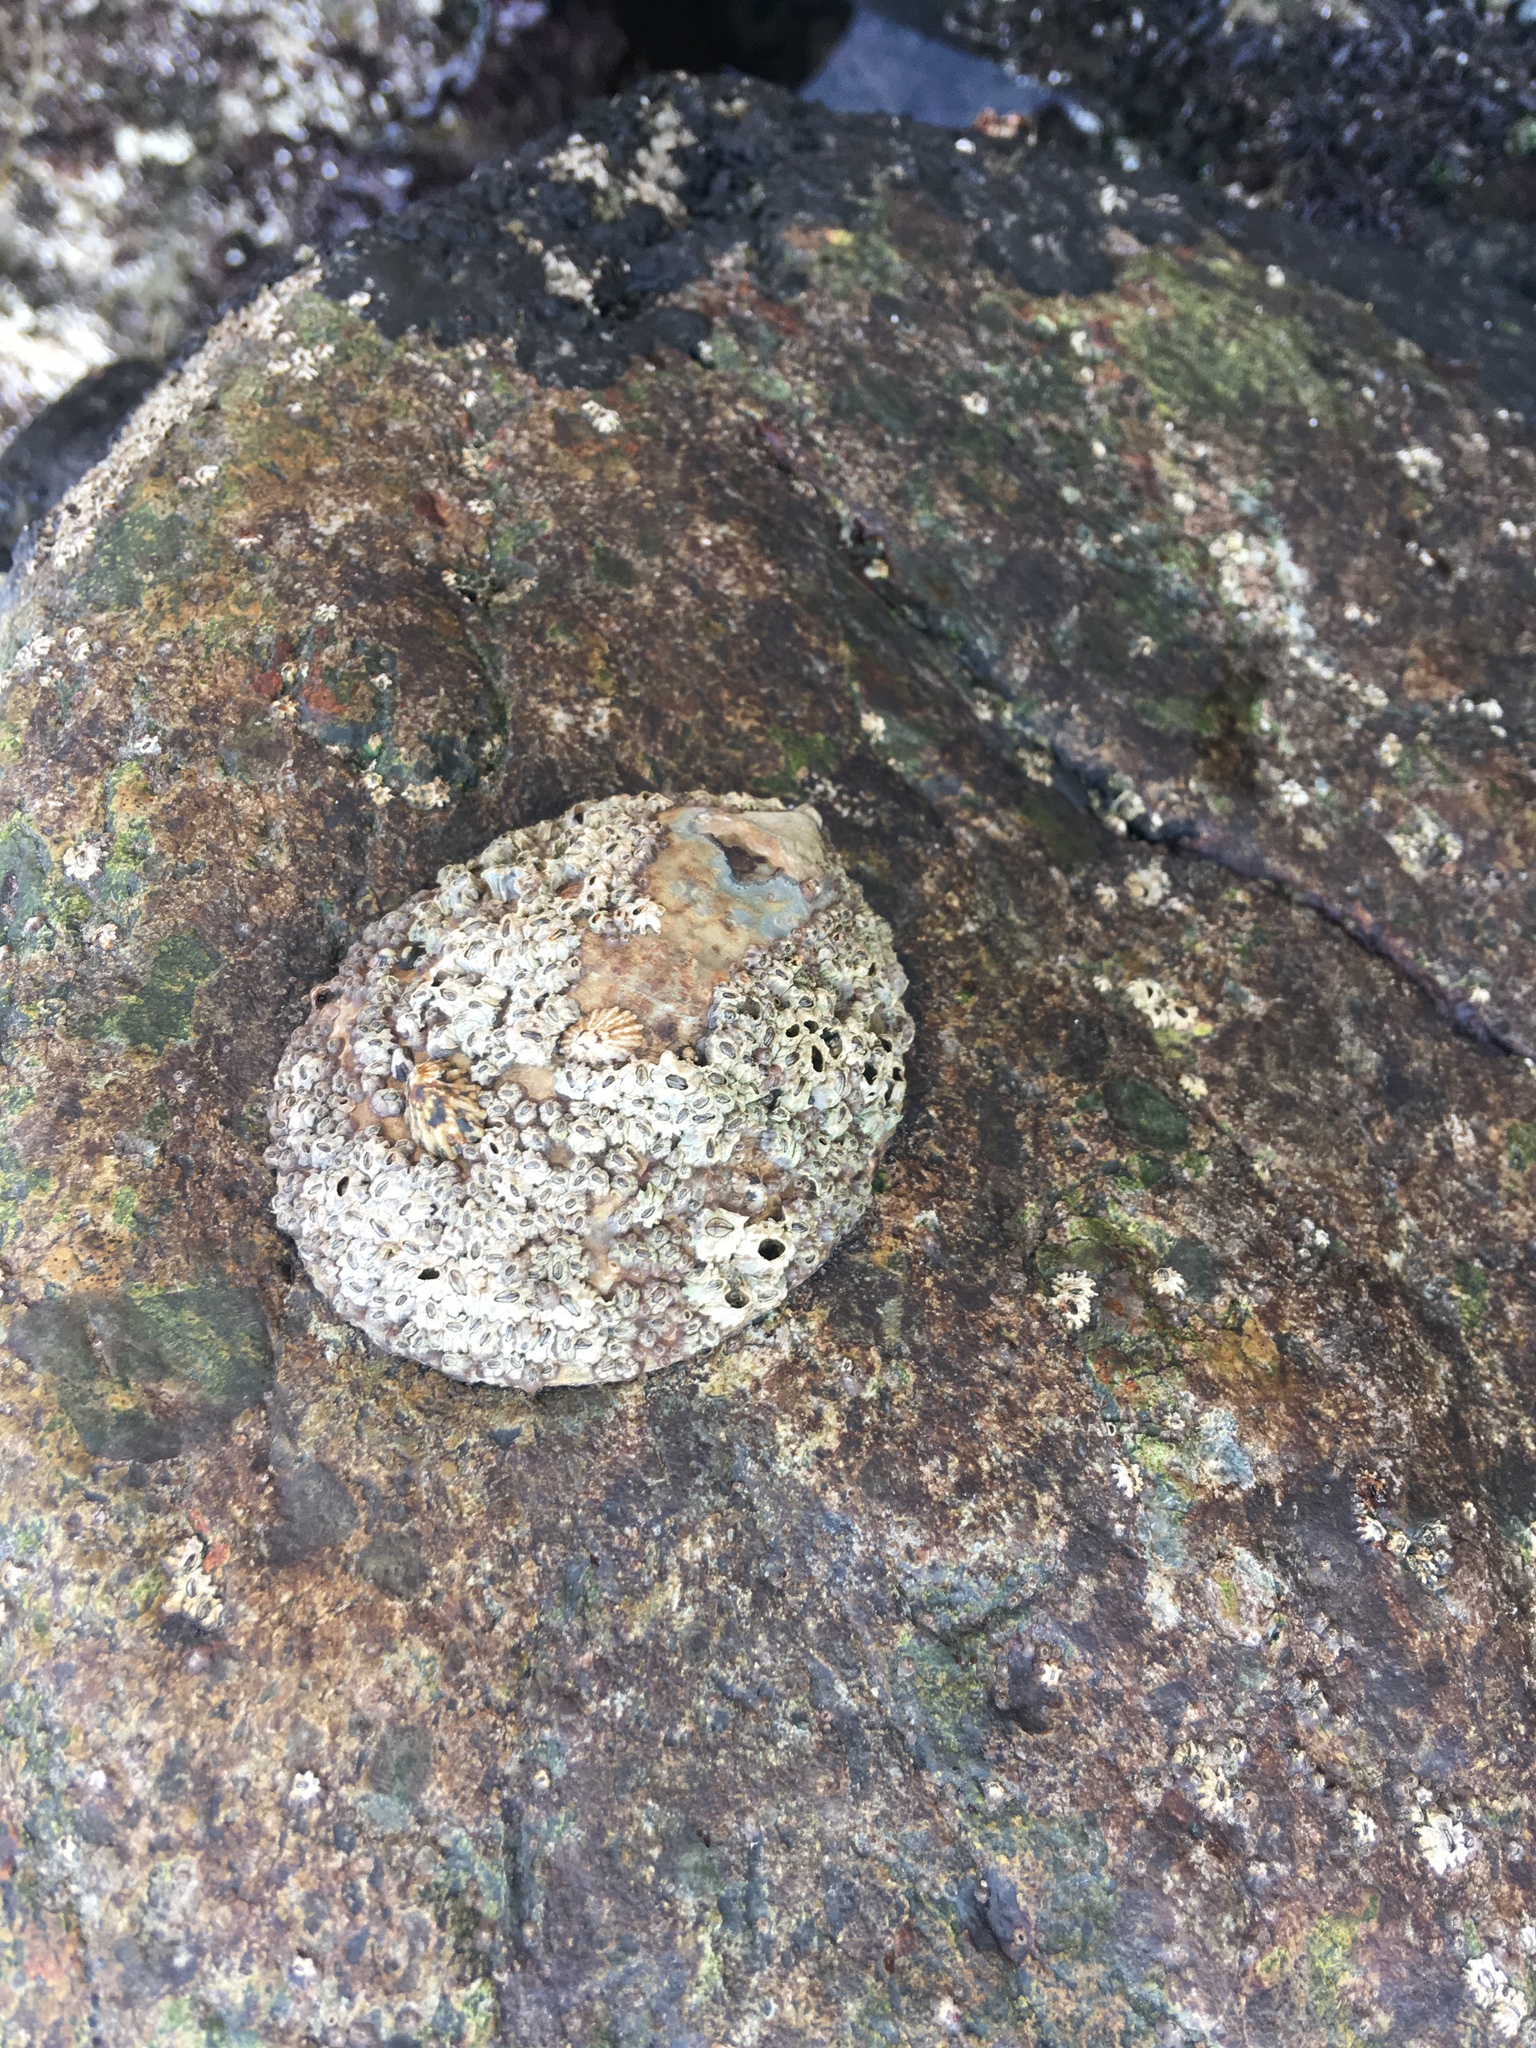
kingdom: Animalia
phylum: Mollusca
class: Gastropoda
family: Lottiidae
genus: Lottia
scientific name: Lottia gigantea
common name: Owl limpet
